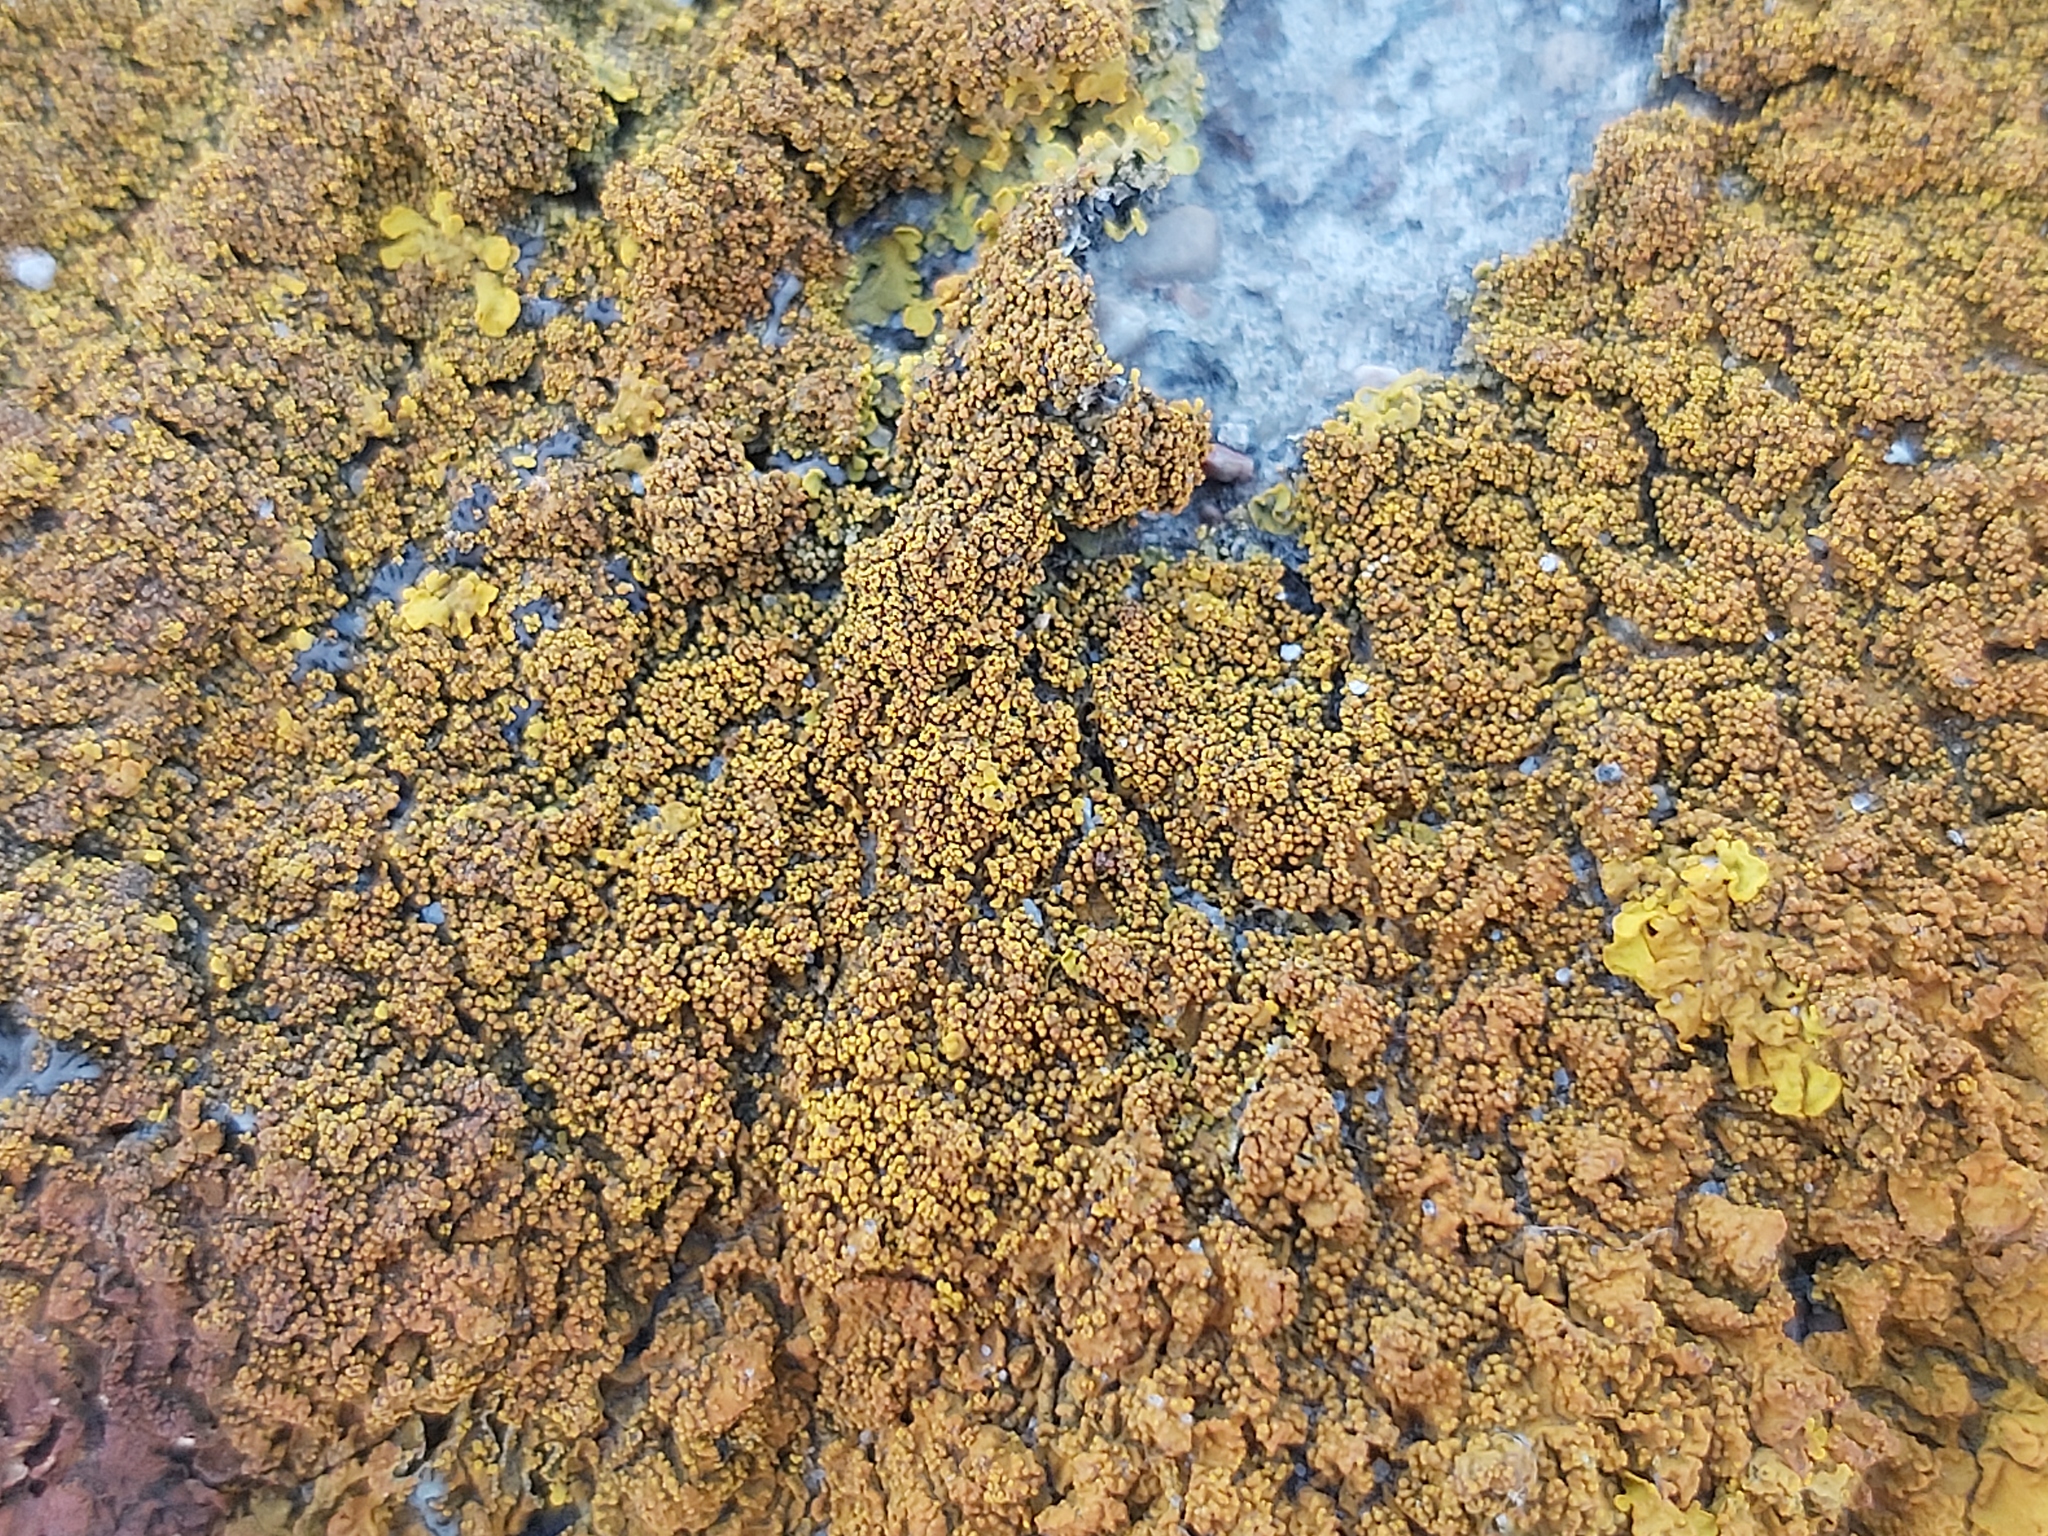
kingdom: Fungi
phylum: Ascomycota
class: Lecanoromycetes
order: Teloschistales
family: Teloschistaceae
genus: Xanthoria
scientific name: Xanthoria calcicola
